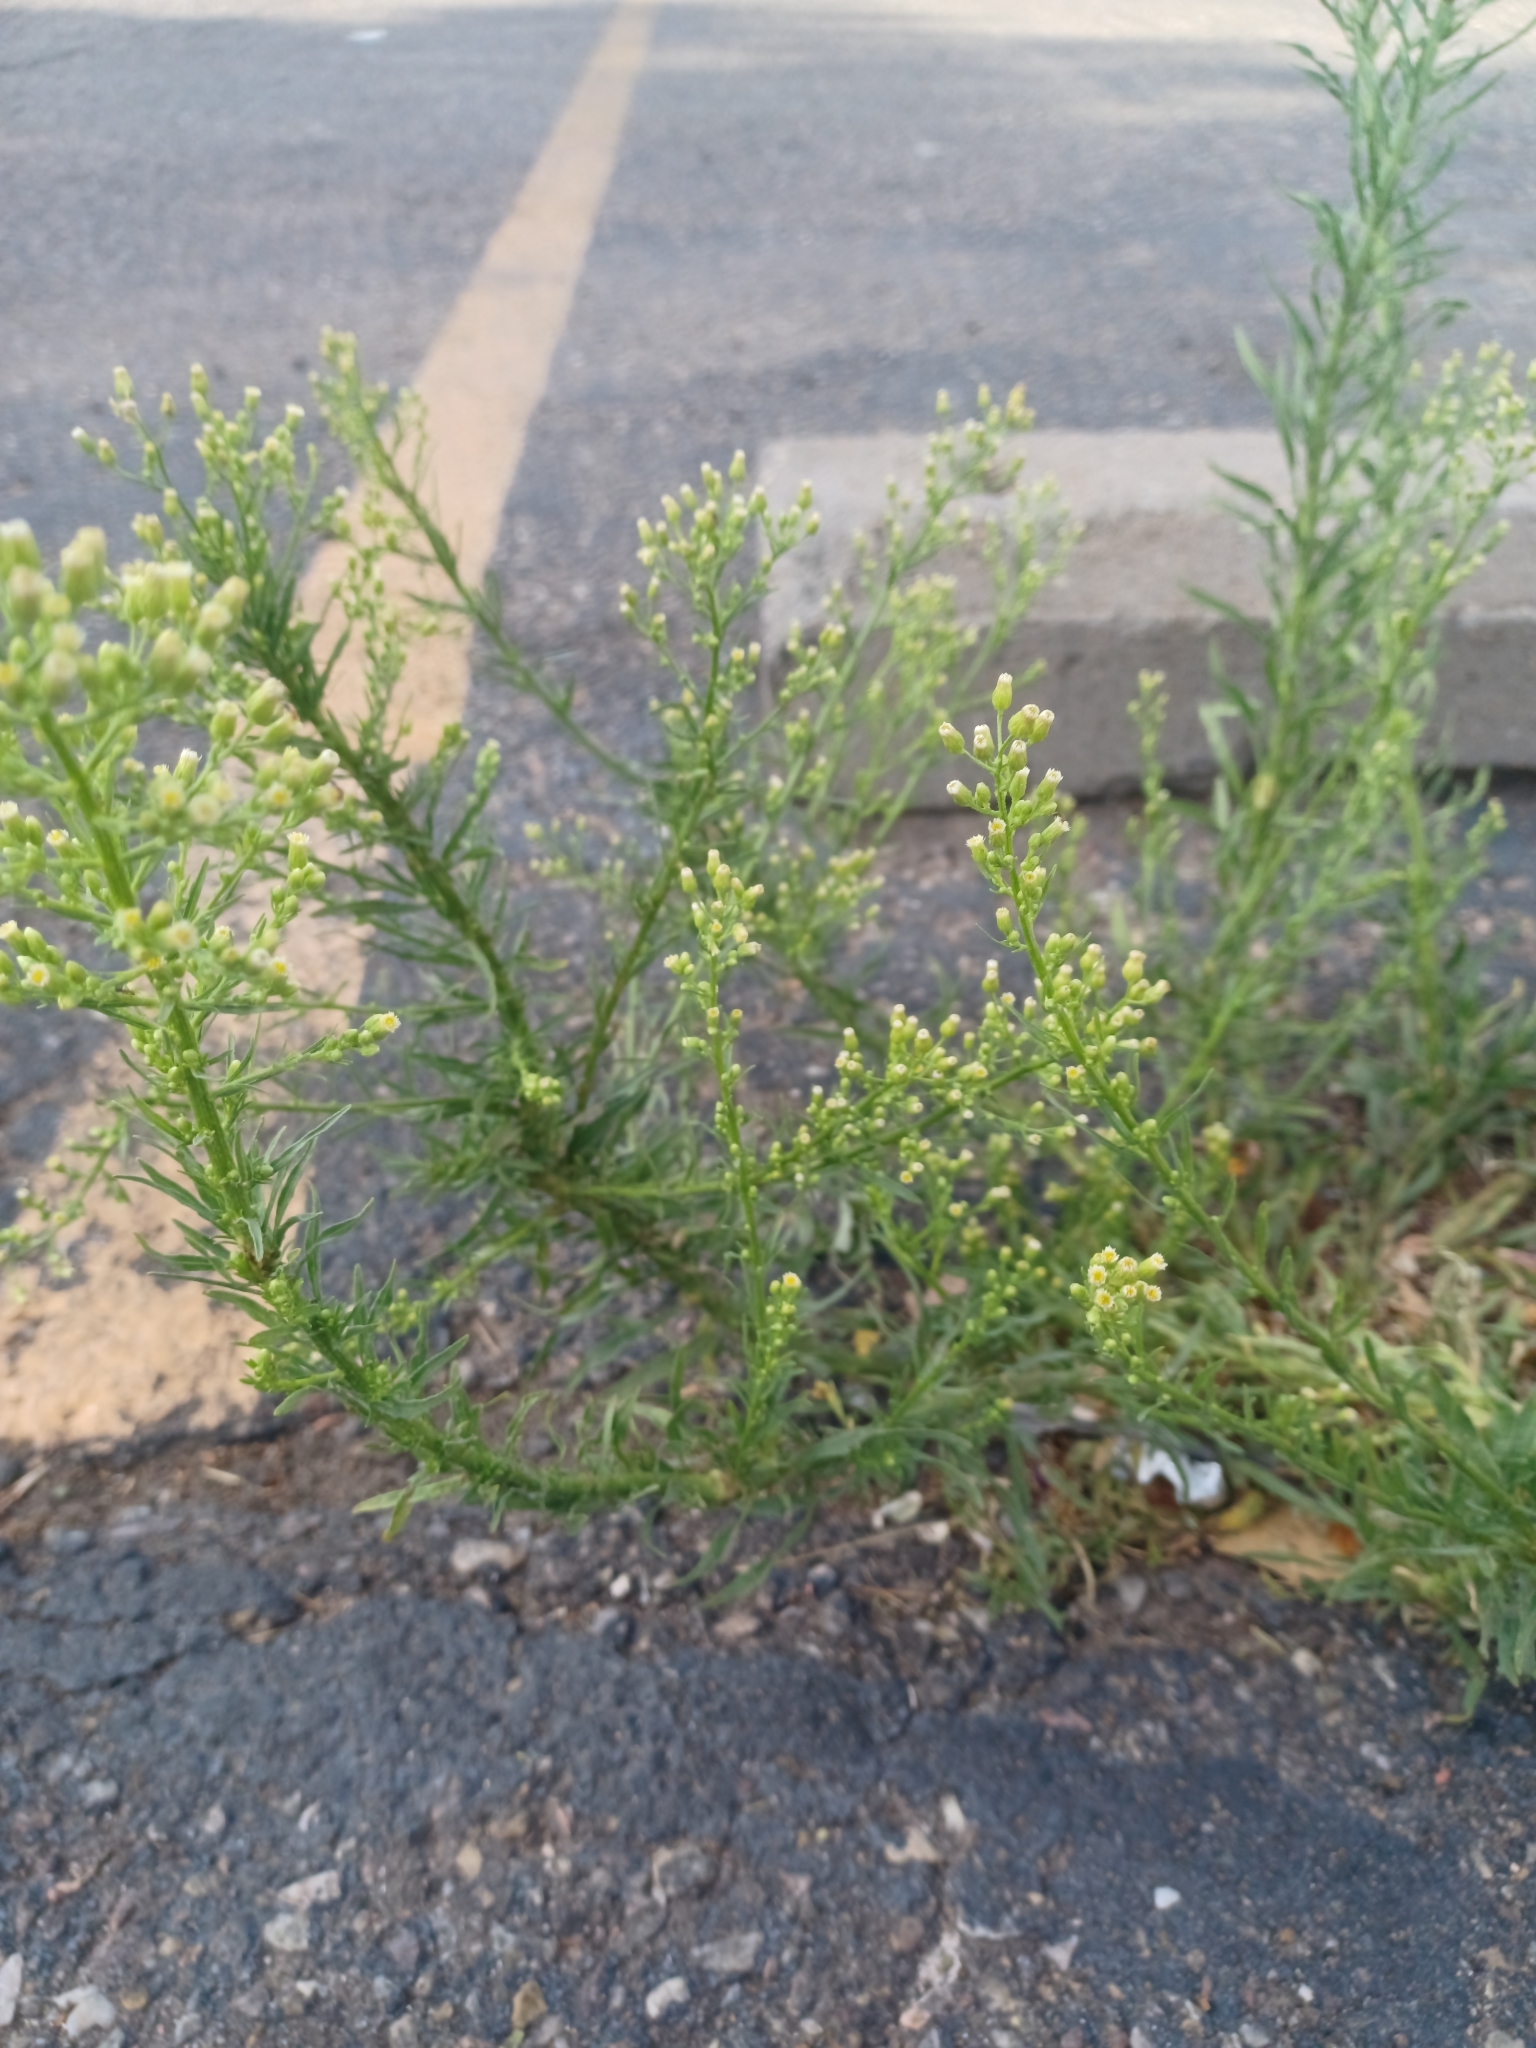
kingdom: Plantae
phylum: Tracheophyta
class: Magnoliopsida
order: Asterales
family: Asteraceae
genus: Erigeron
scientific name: Erigeron canadensis
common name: Canadian fleabane
